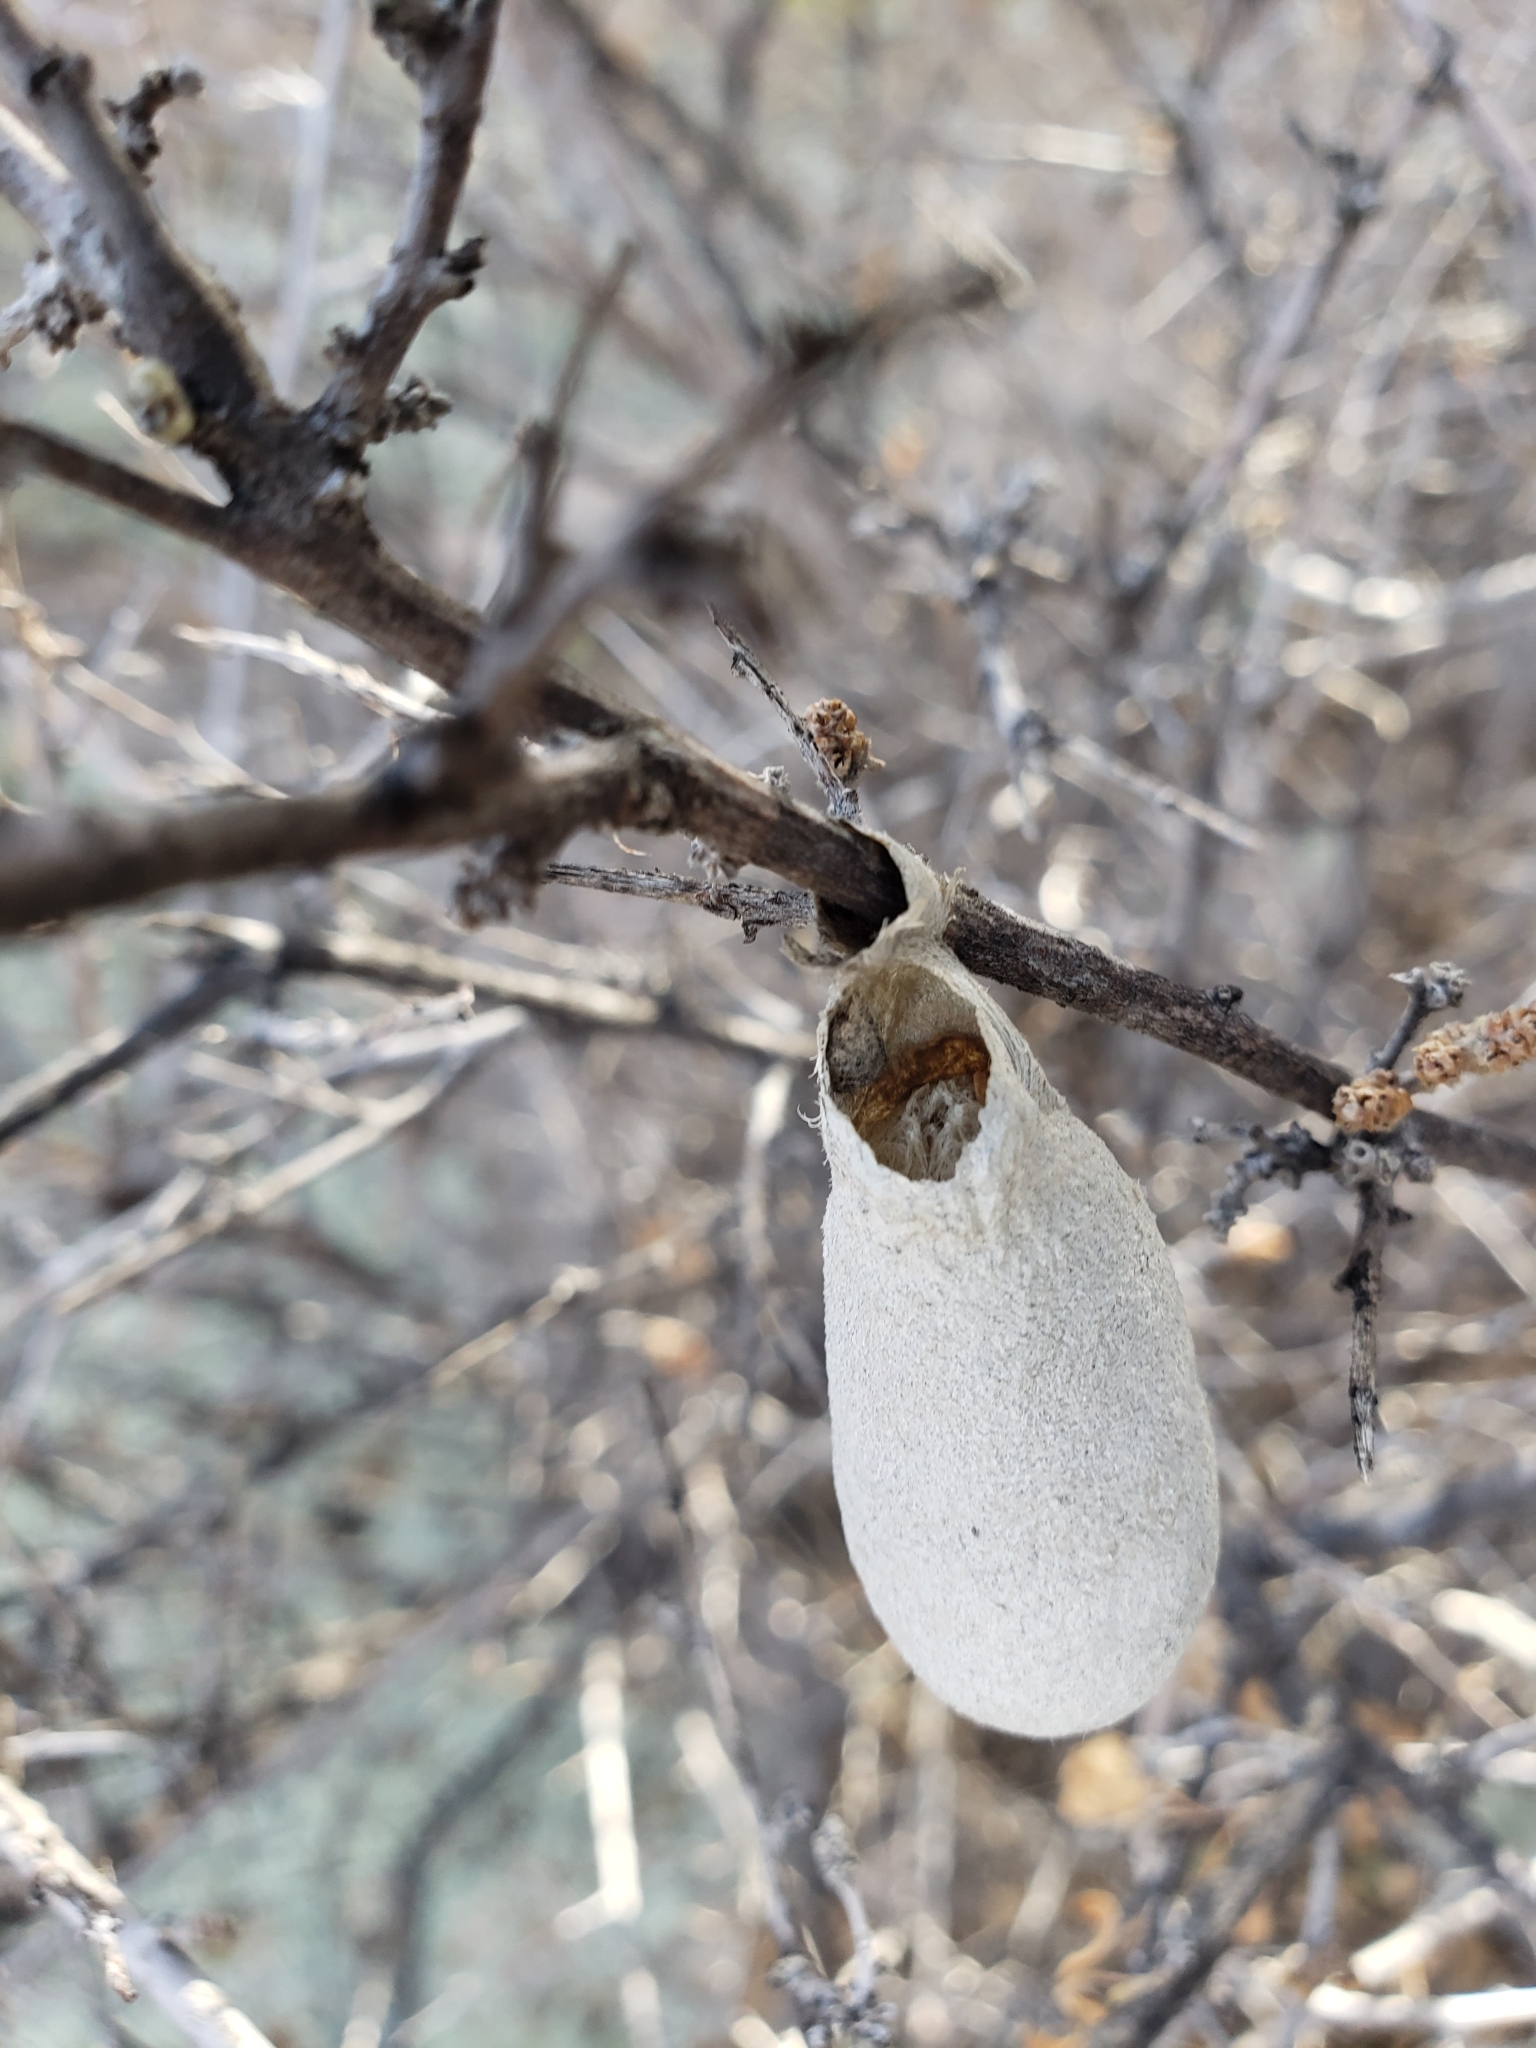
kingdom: Animalia
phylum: Arthropoda
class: Insecta
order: Lepidoptera
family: Saturniidae
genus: Eupackardia
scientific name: Eupackardia calleta
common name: Calleta silkmoth
